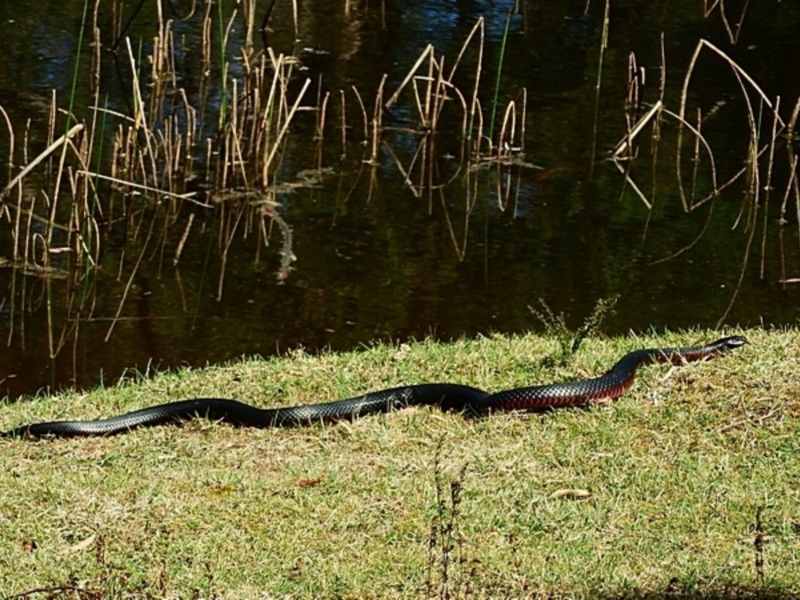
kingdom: Animalia
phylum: Chordata
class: Squamata
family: Elapidae
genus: Pseudechis
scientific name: Pseudechis porphyriacus
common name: Australian black snake
